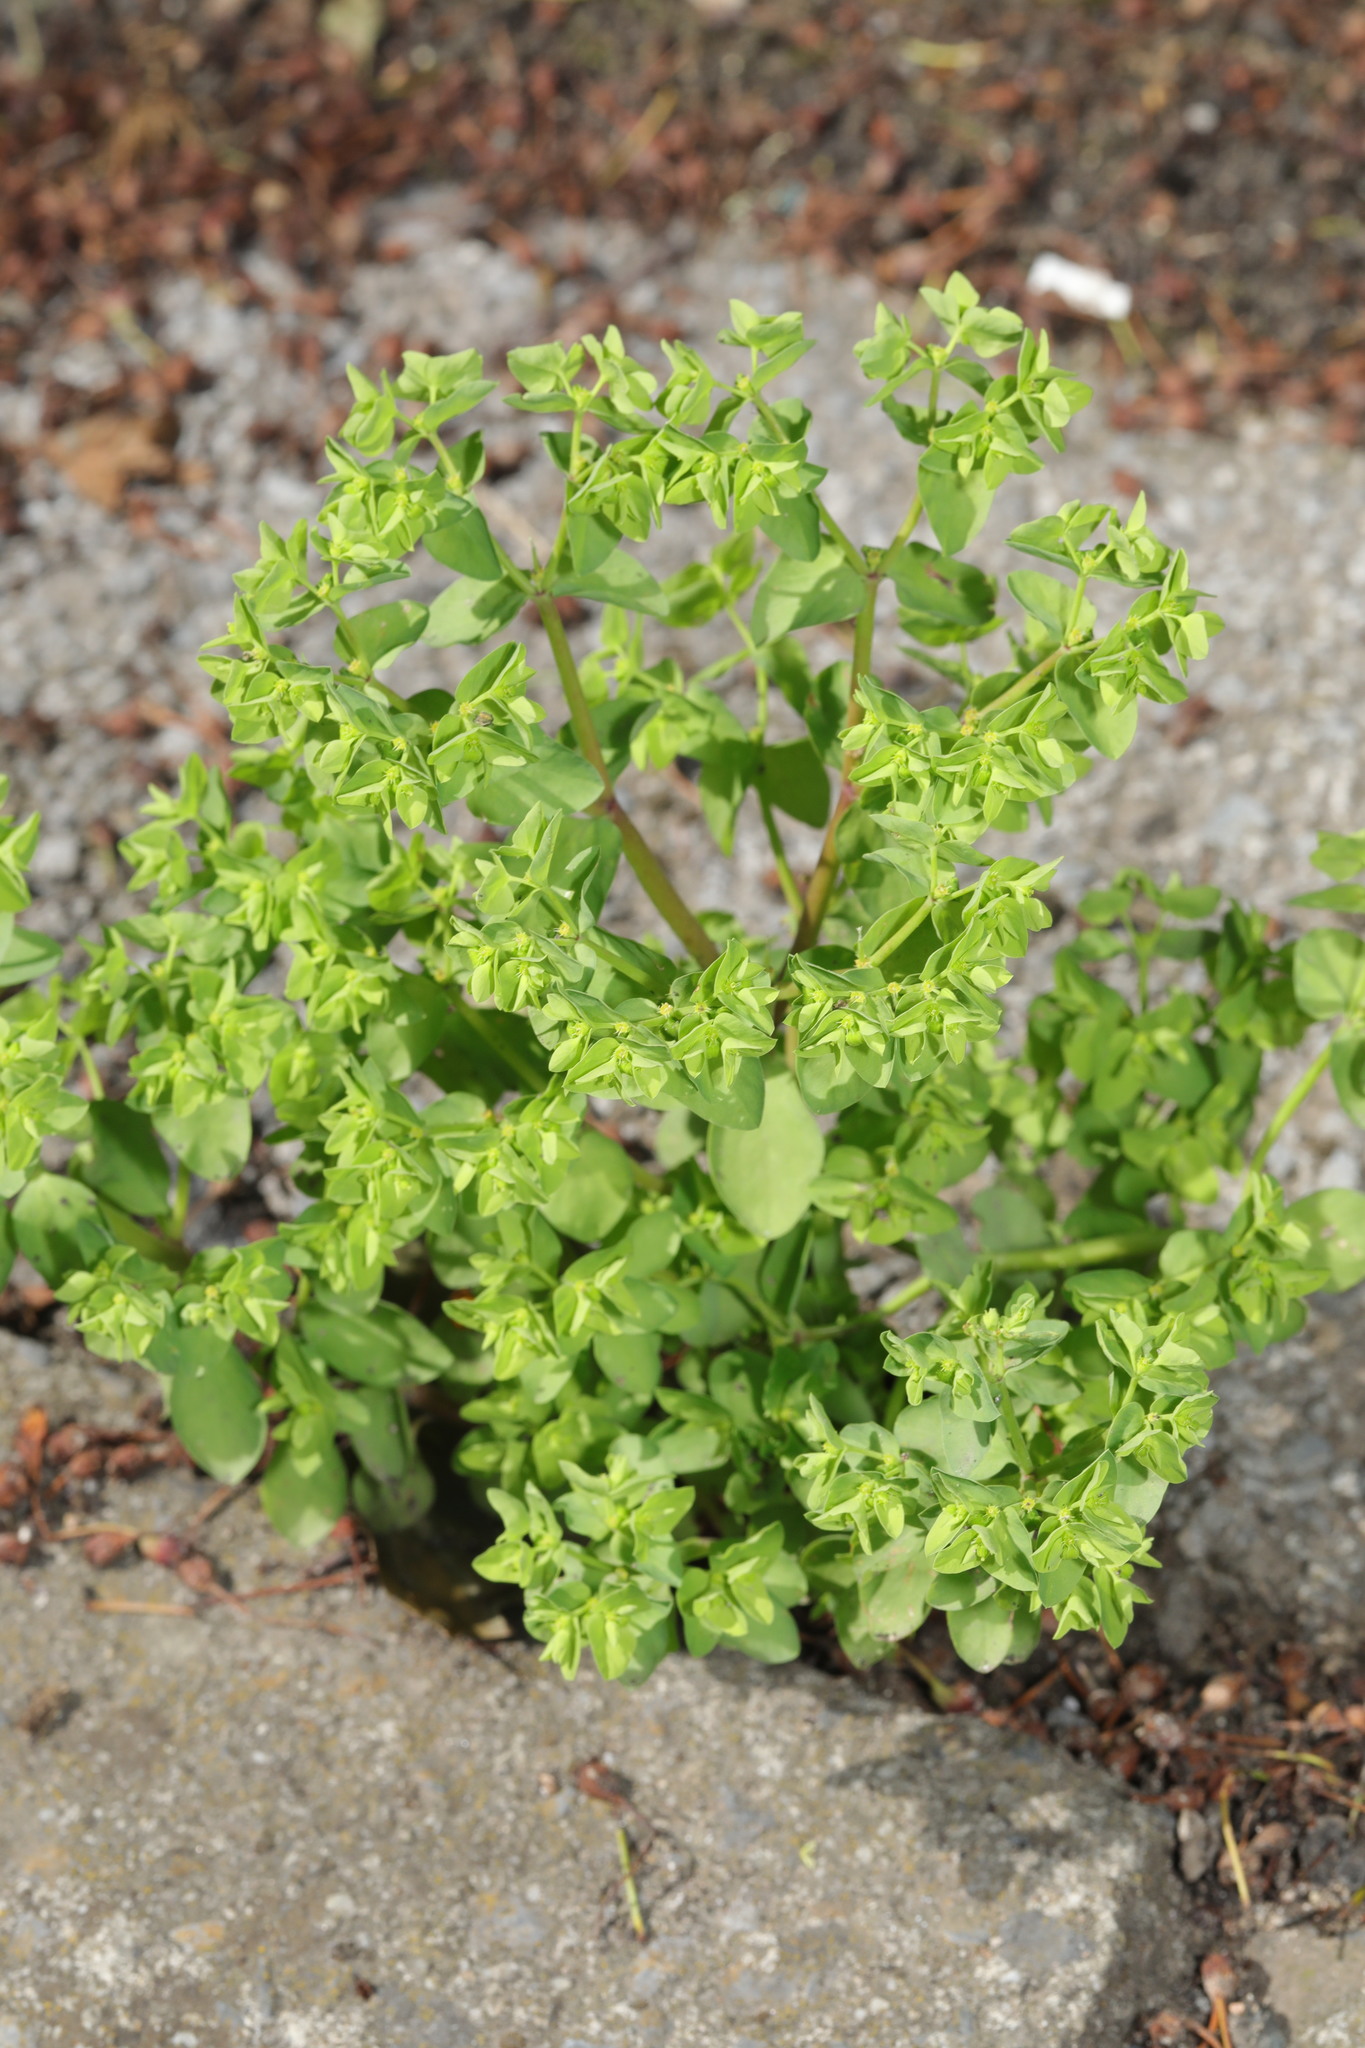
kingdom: Plantae
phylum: Tracheophyta
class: Magnoliopsida
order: Malpighiales
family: Euphorbiaceae
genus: Euphorbia
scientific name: Euphorbia peplus
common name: Petty spurge
